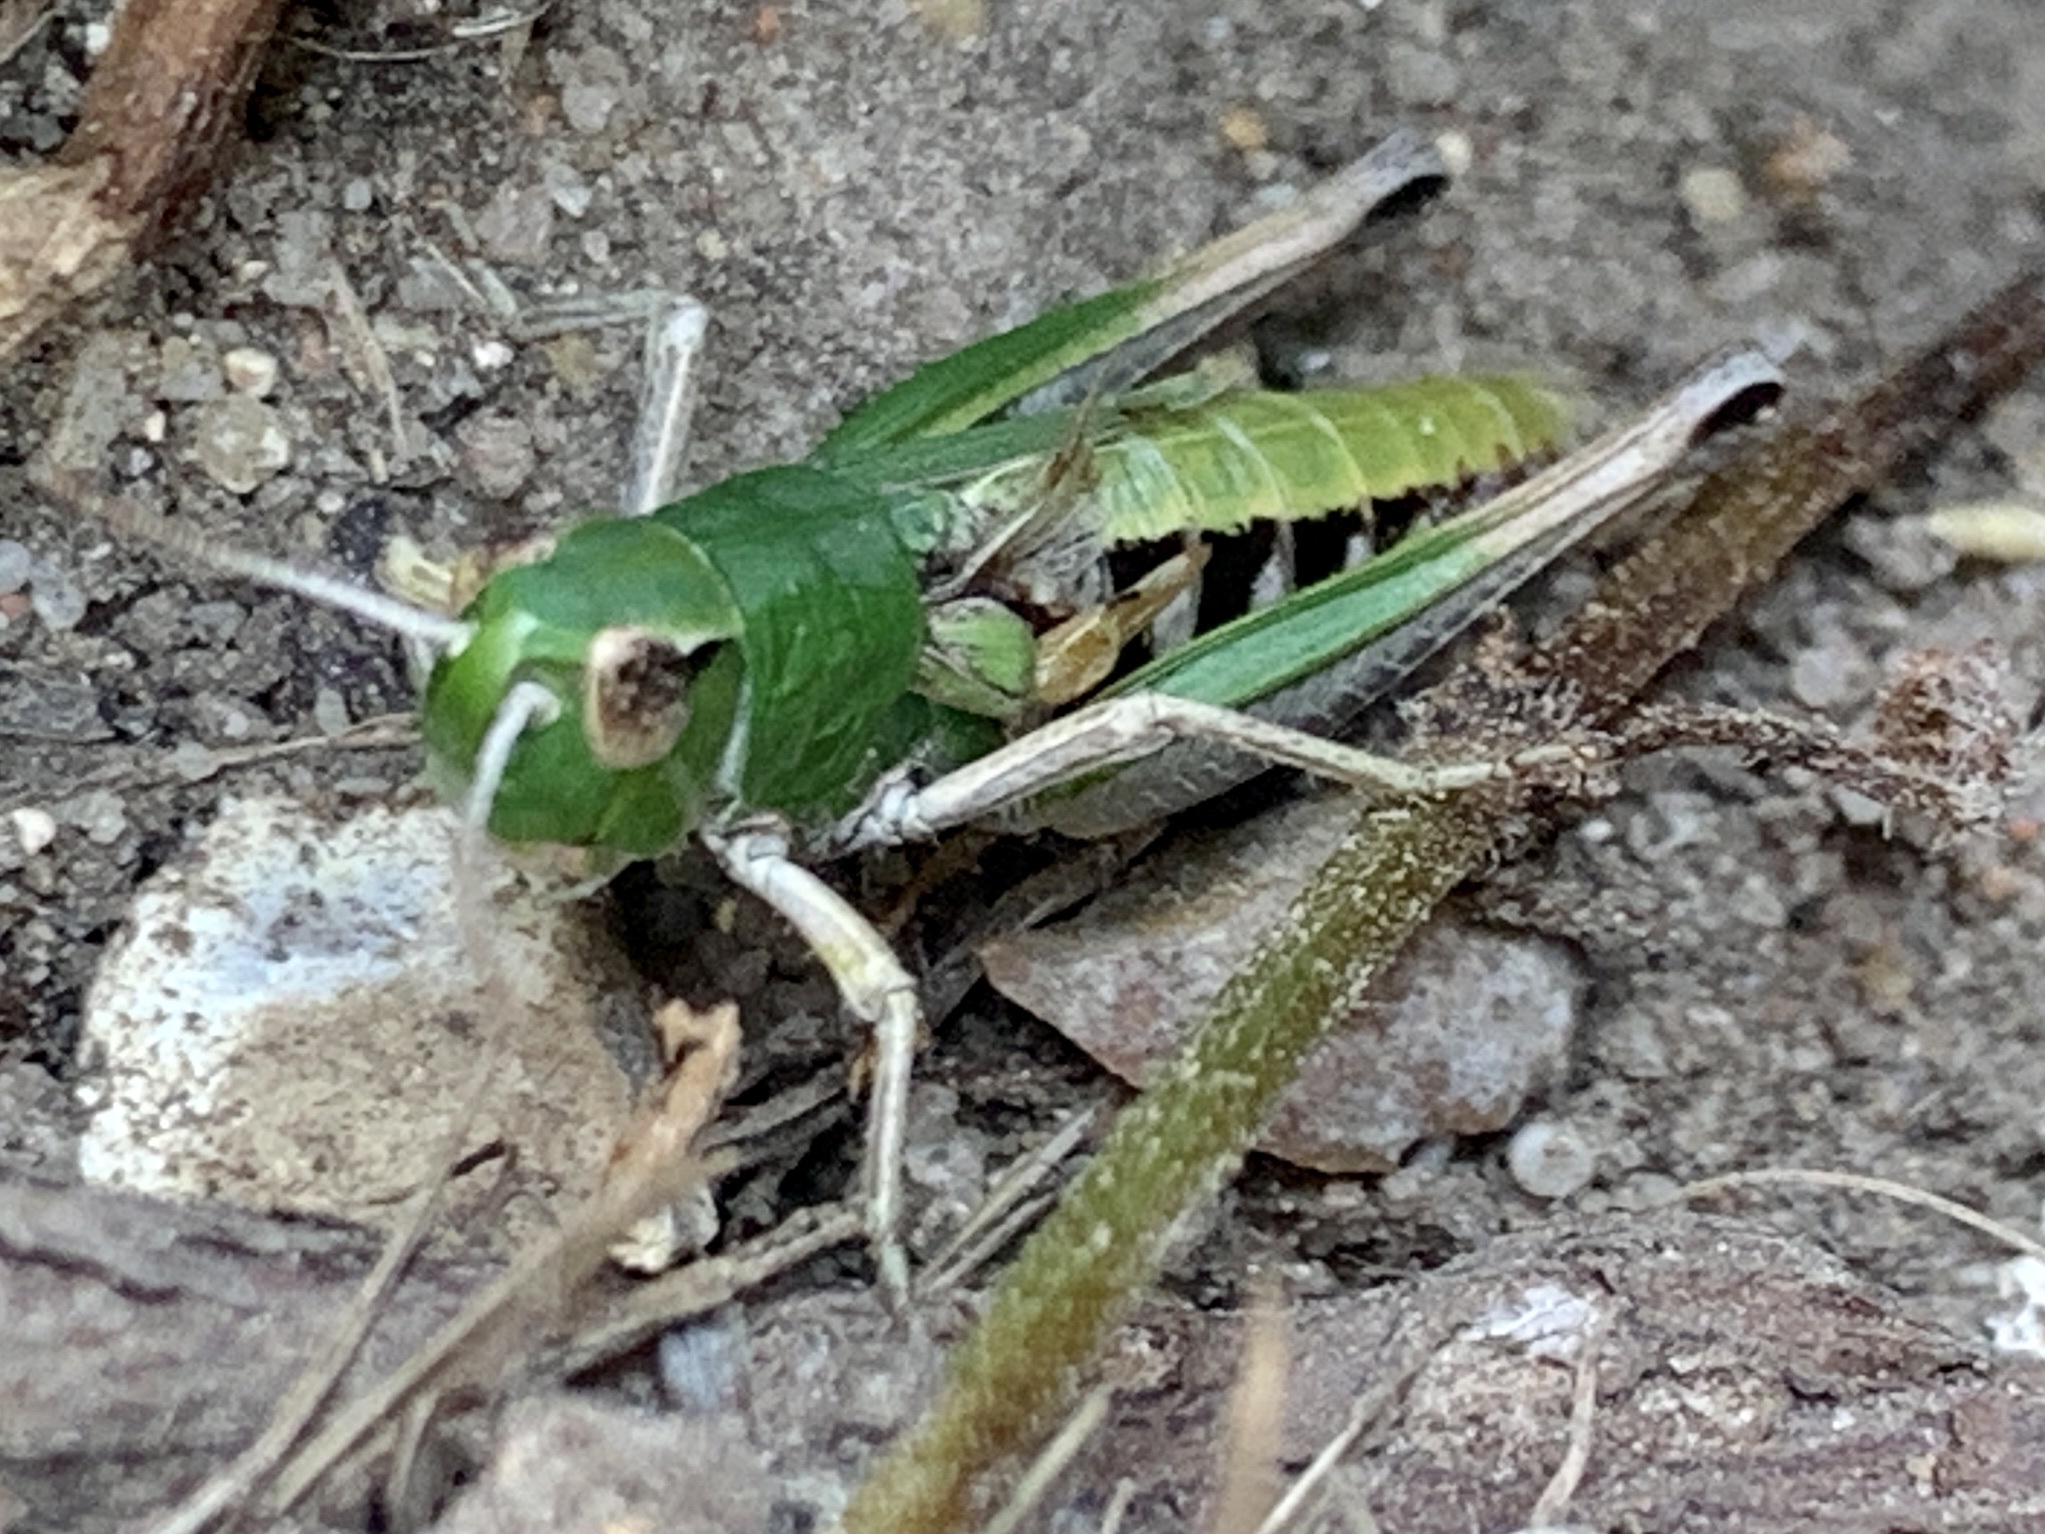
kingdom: Animalia
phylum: Arthropoda
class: Insecta
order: Orthoptera
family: Acrididae
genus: Pseudochorthippus
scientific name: Pseudochorthippus parallelus
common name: Meadow grasshopper
